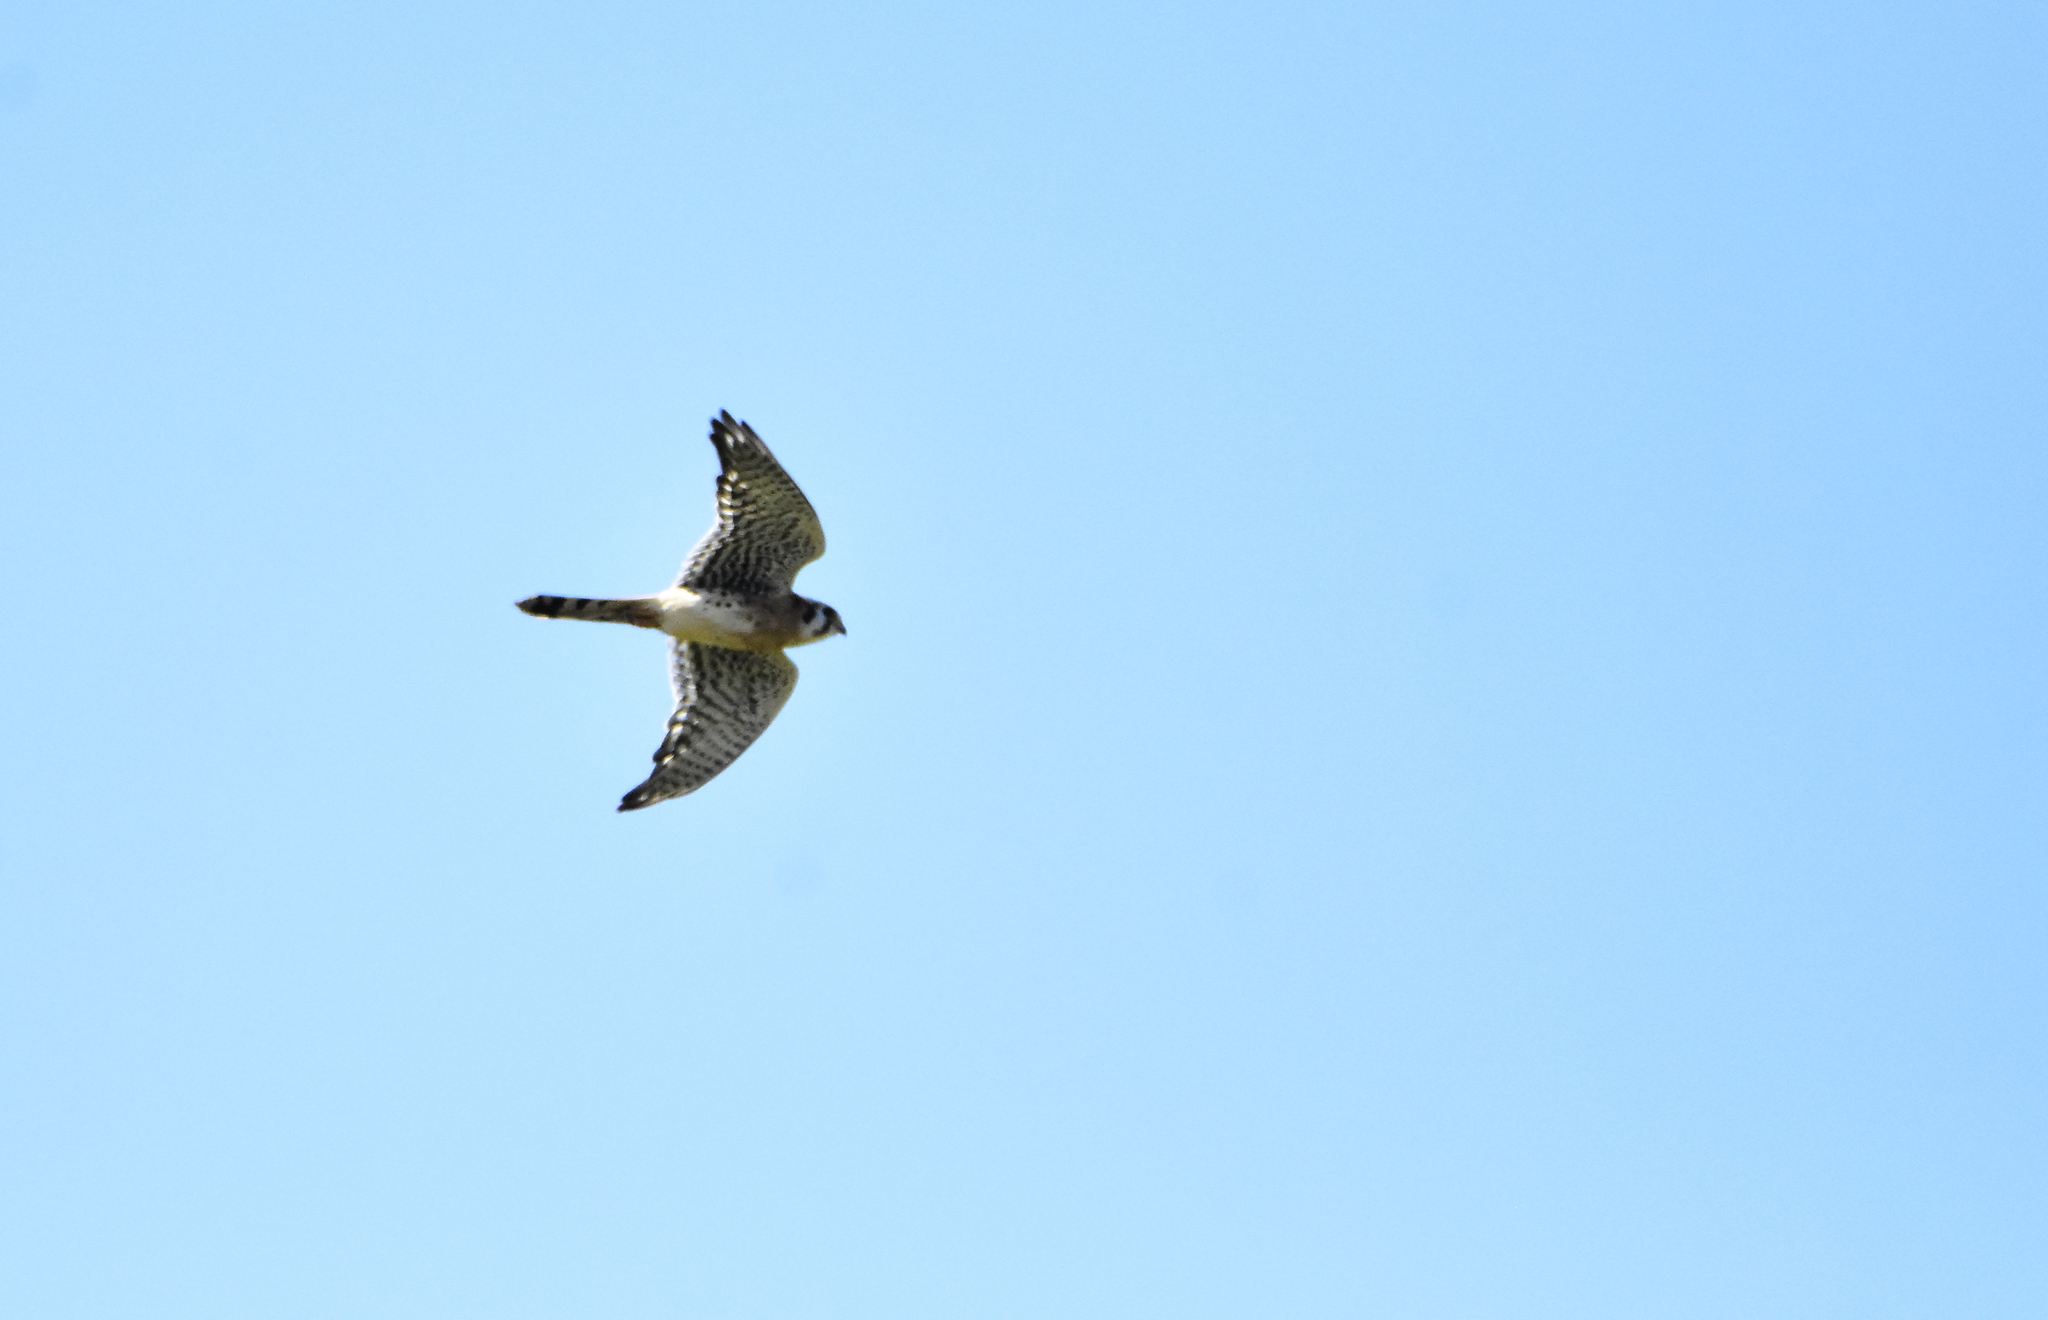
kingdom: Animalia
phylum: Chordata
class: Aves
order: Falconiformes
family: Falconidae
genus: Falco
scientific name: Falco sparverius
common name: American kestrel
